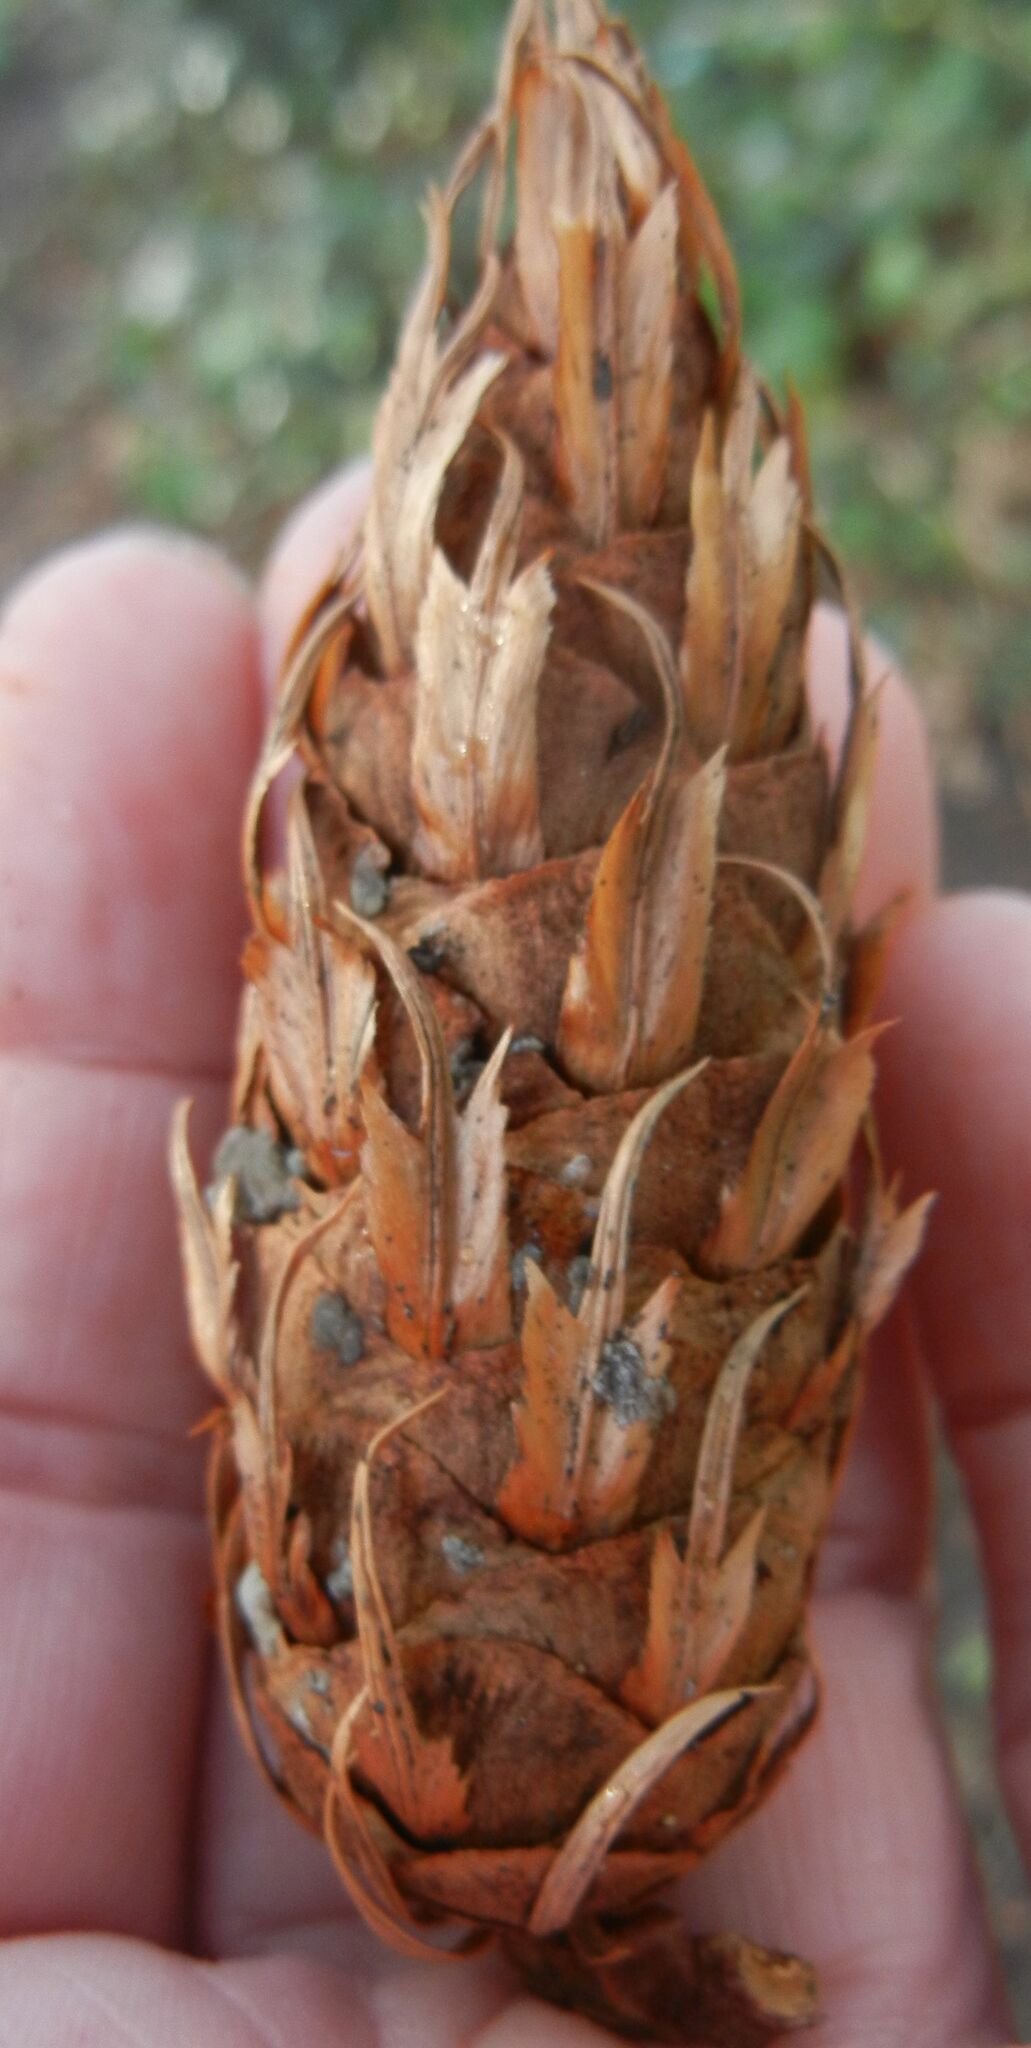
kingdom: Plantae
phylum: Tracheophyta
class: Pinopsida
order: Pinales
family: Pinaceae
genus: Pseudotsuga
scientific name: Pseudotsuga menziesii
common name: Douglas fir
